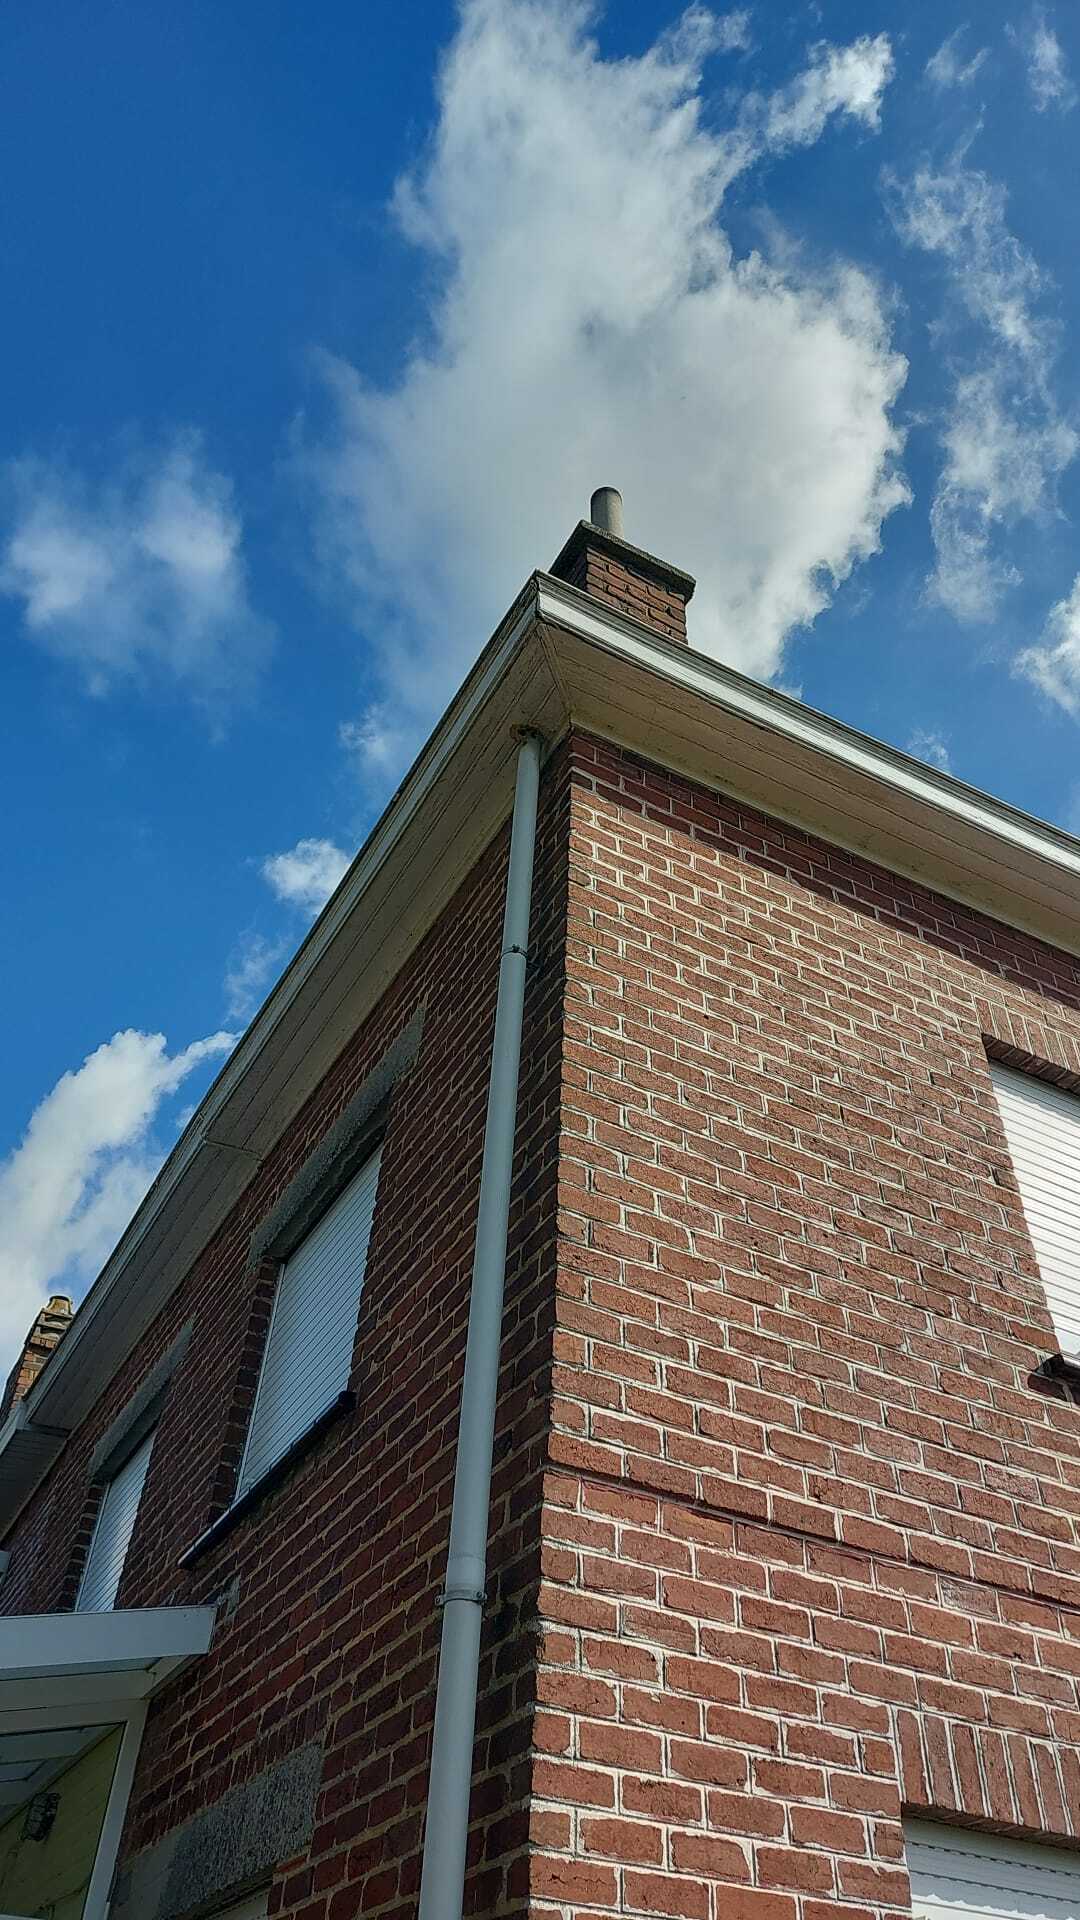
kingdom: Animalia
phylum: Arthropoda
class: Insecta
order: Hymenoptera
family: Vespidae
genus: Vespa
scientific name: Vespa velutina
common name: Asian hornet
